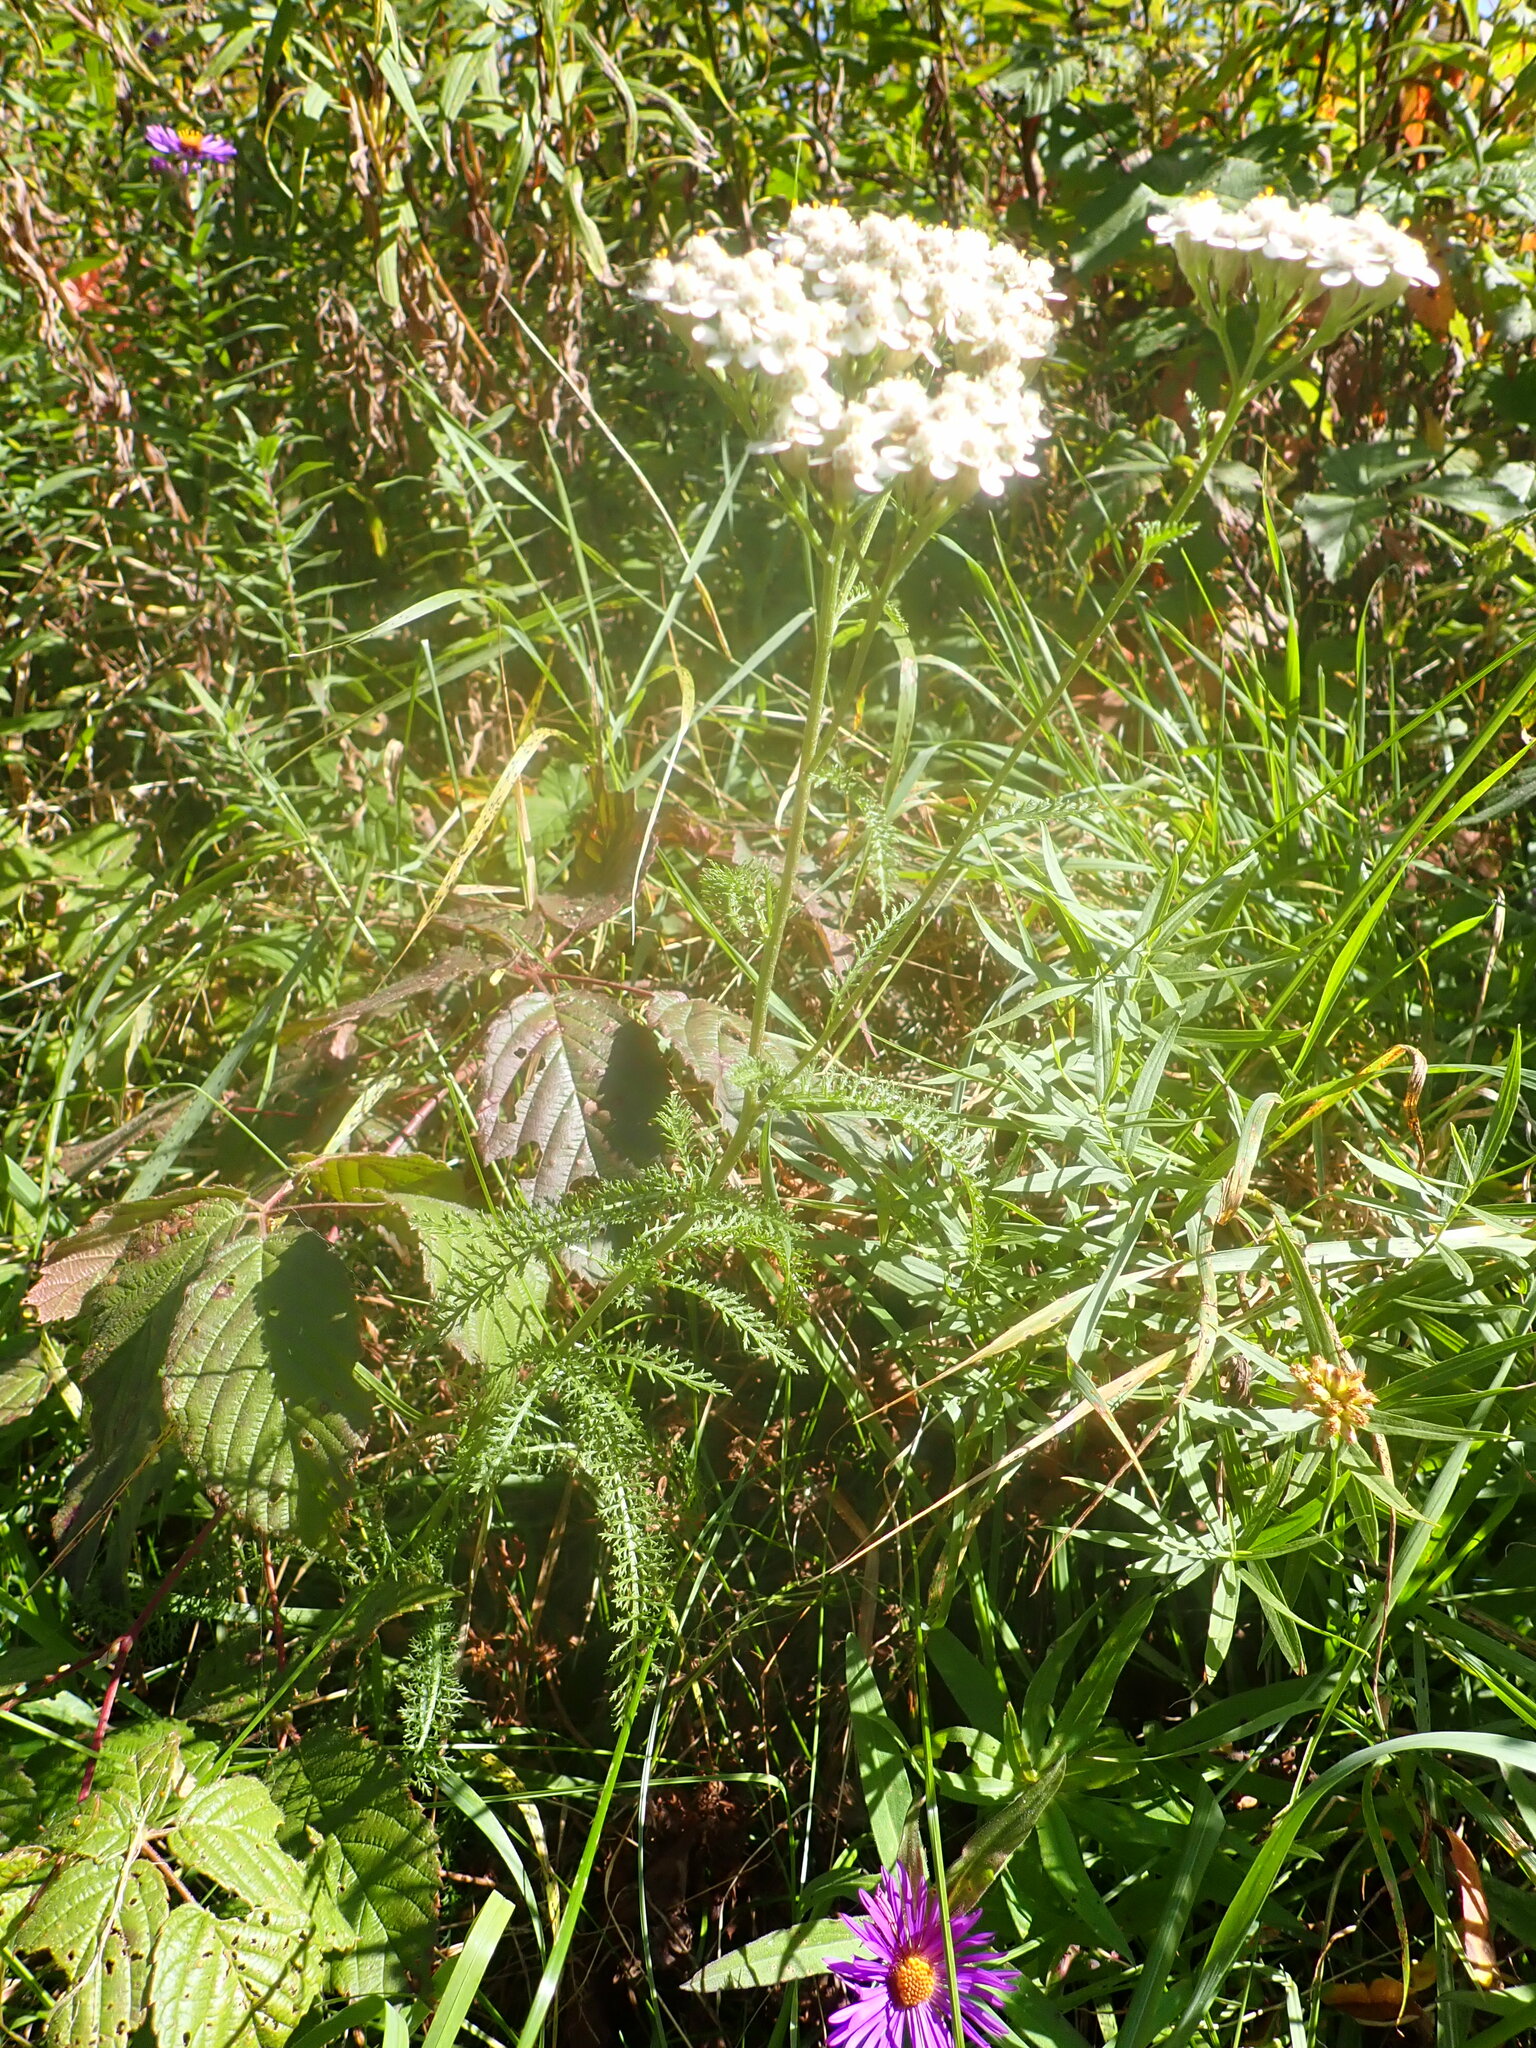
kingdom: Plantae
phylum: Tracheophyta
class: Magnoliopsida
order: Asterales
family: Asteraceae
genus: Achillea
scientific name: Achillea millefolium
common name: Yarrow
